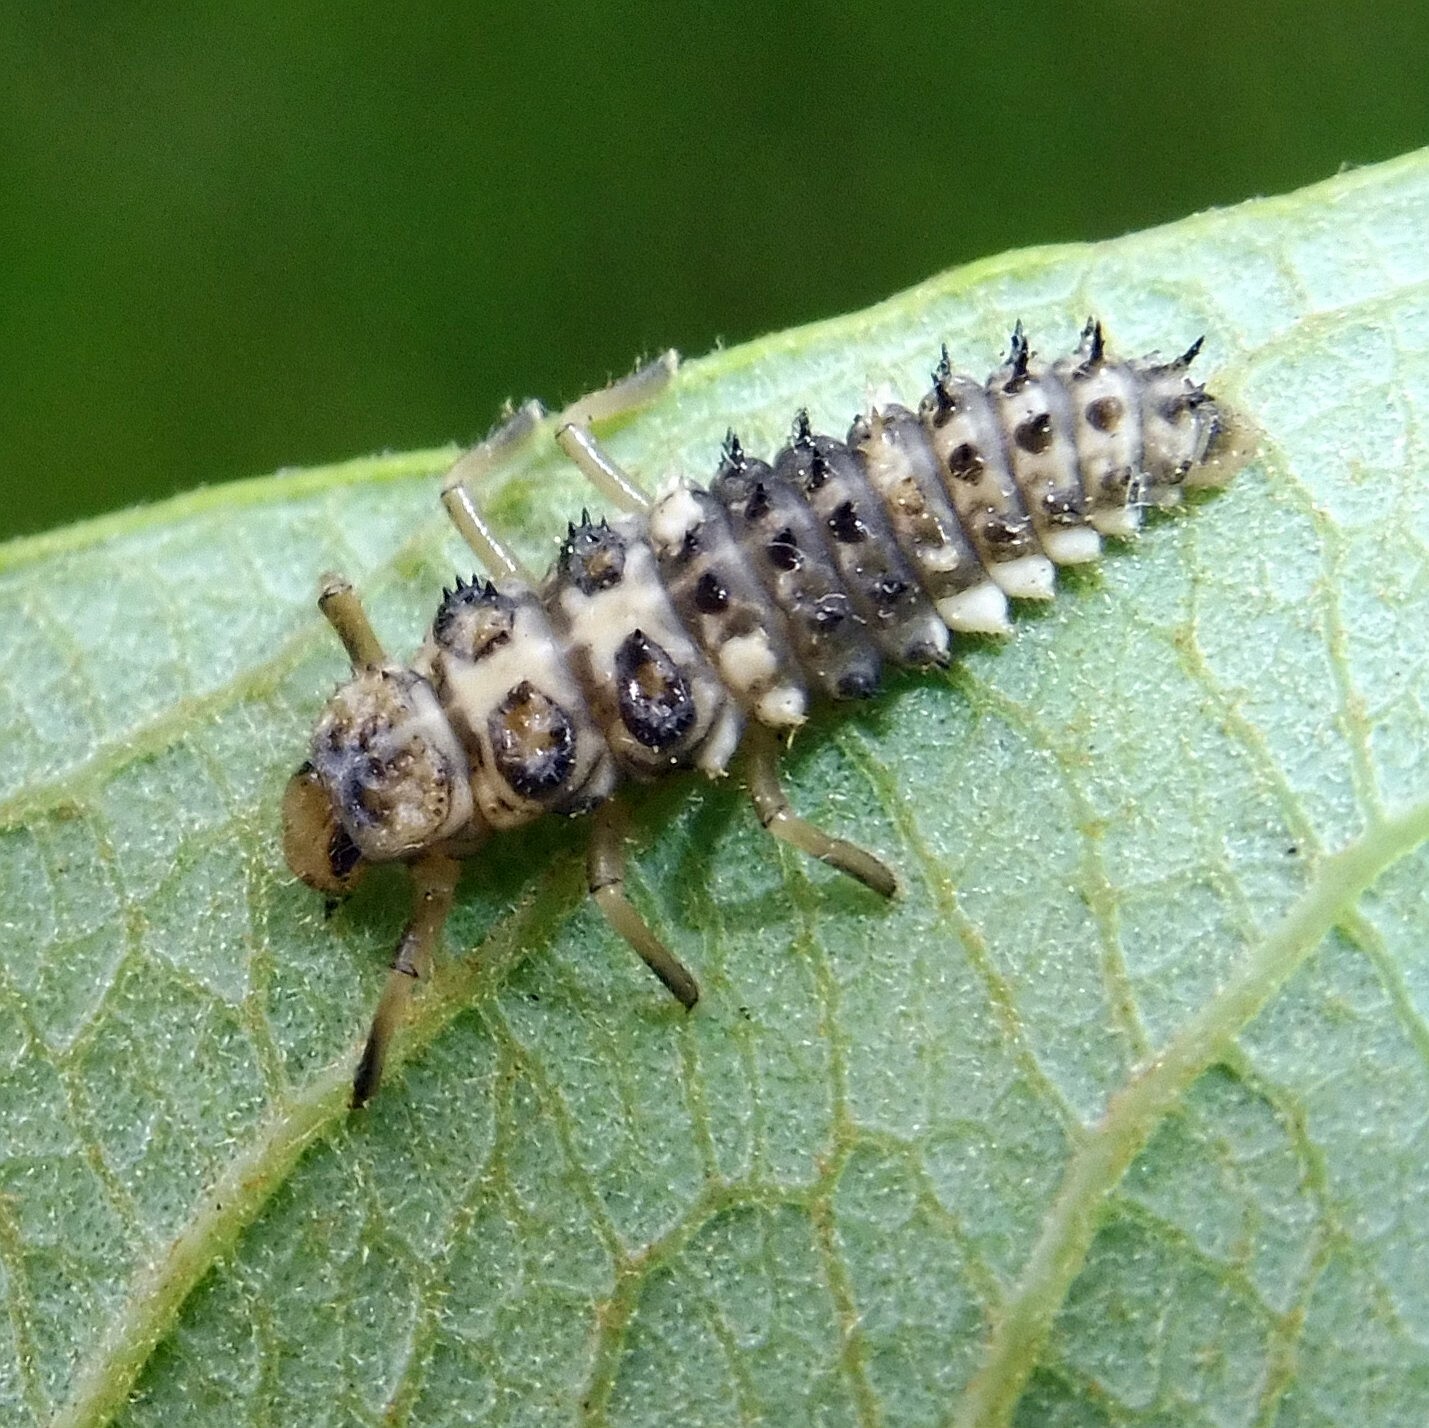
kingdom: Animalia
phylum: Arthropoda
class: Insecta
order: Coleoptera
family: Coccinellidae
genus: Calvia
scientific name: Calvia quatuordecimguttata
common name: Cream-spot ladybird
